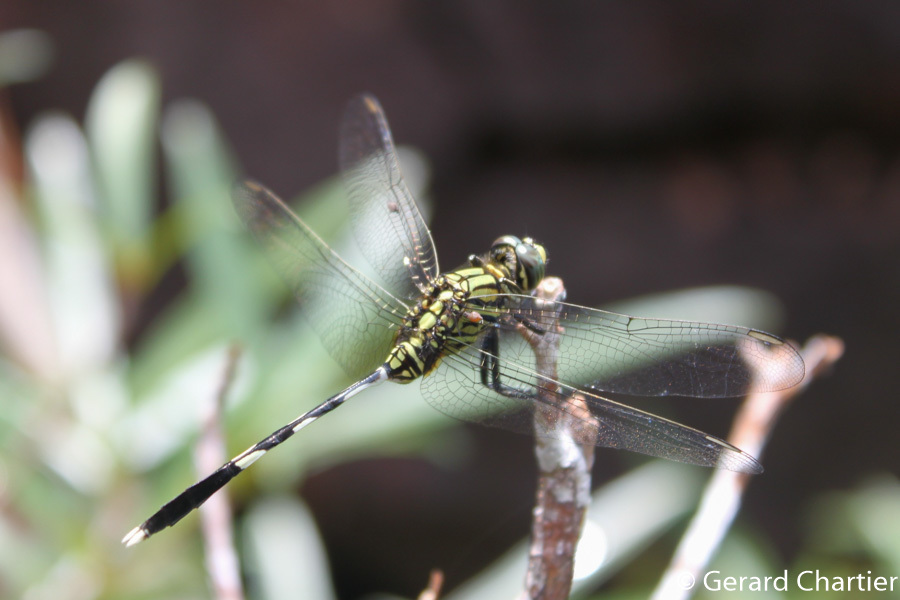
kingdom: Animalia
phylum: Arthropoda
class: Insecta
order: Odonata
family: Libellulidae
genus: Orthetrum
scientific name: Orthetrum sabina
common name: Slender skimmer
